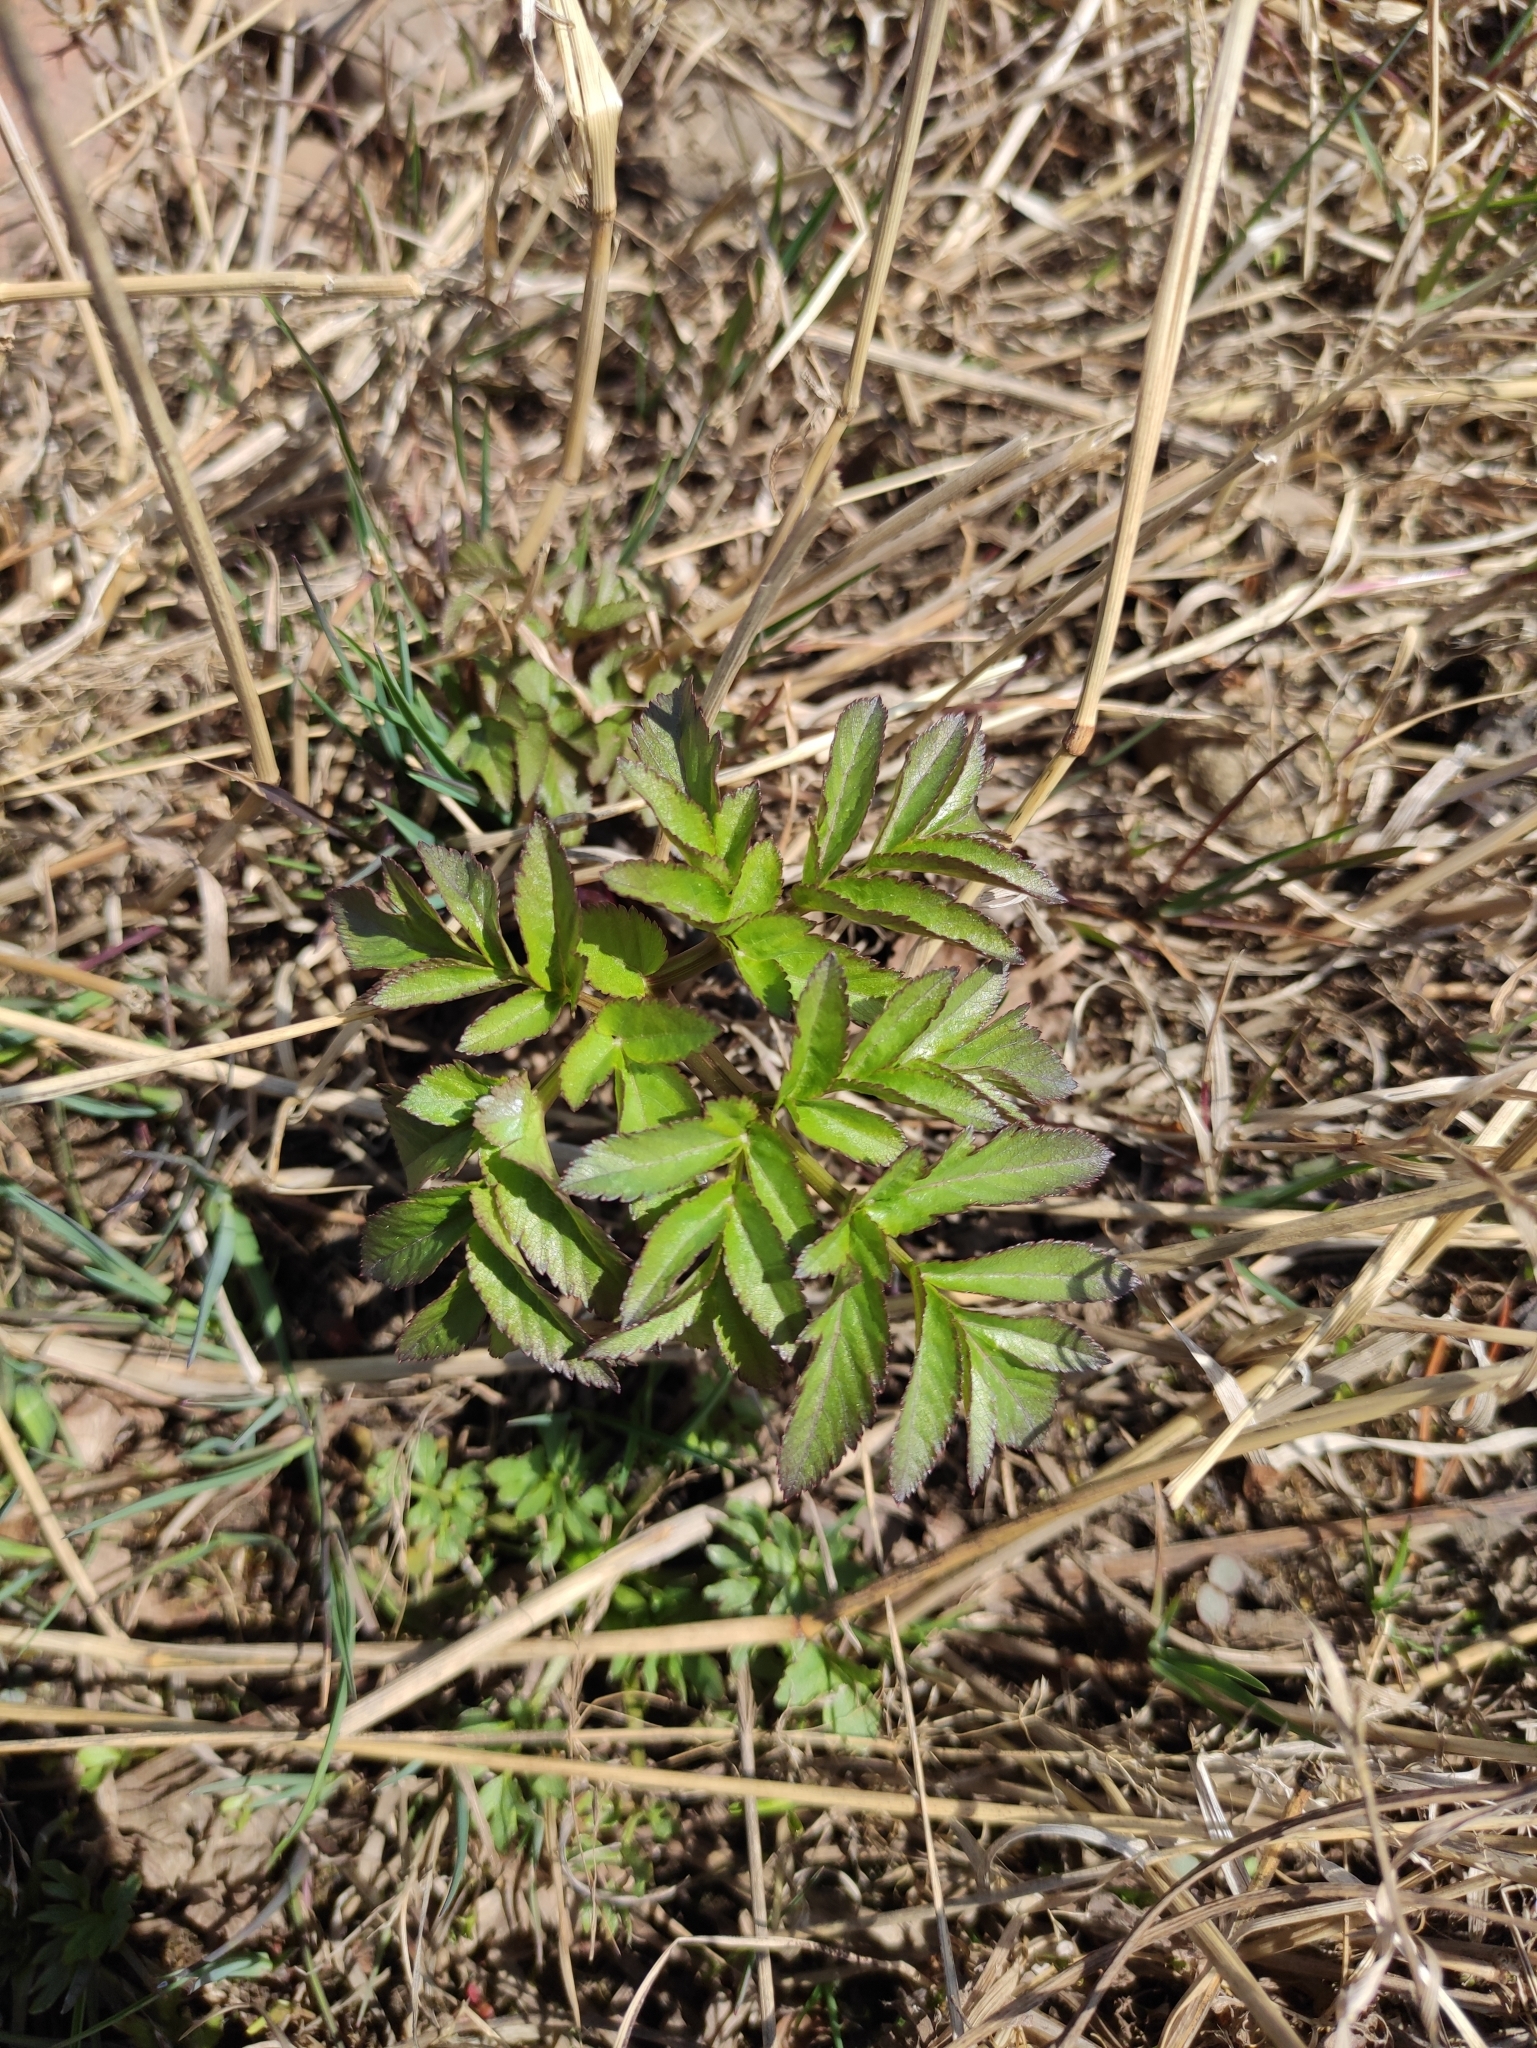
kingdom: Plantae
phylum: Tracheophyta
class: Magnoliopsida
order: Apiales
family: Apiaceae
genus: Angelica
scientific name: Angelica sylvestris
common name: Wild angelica
